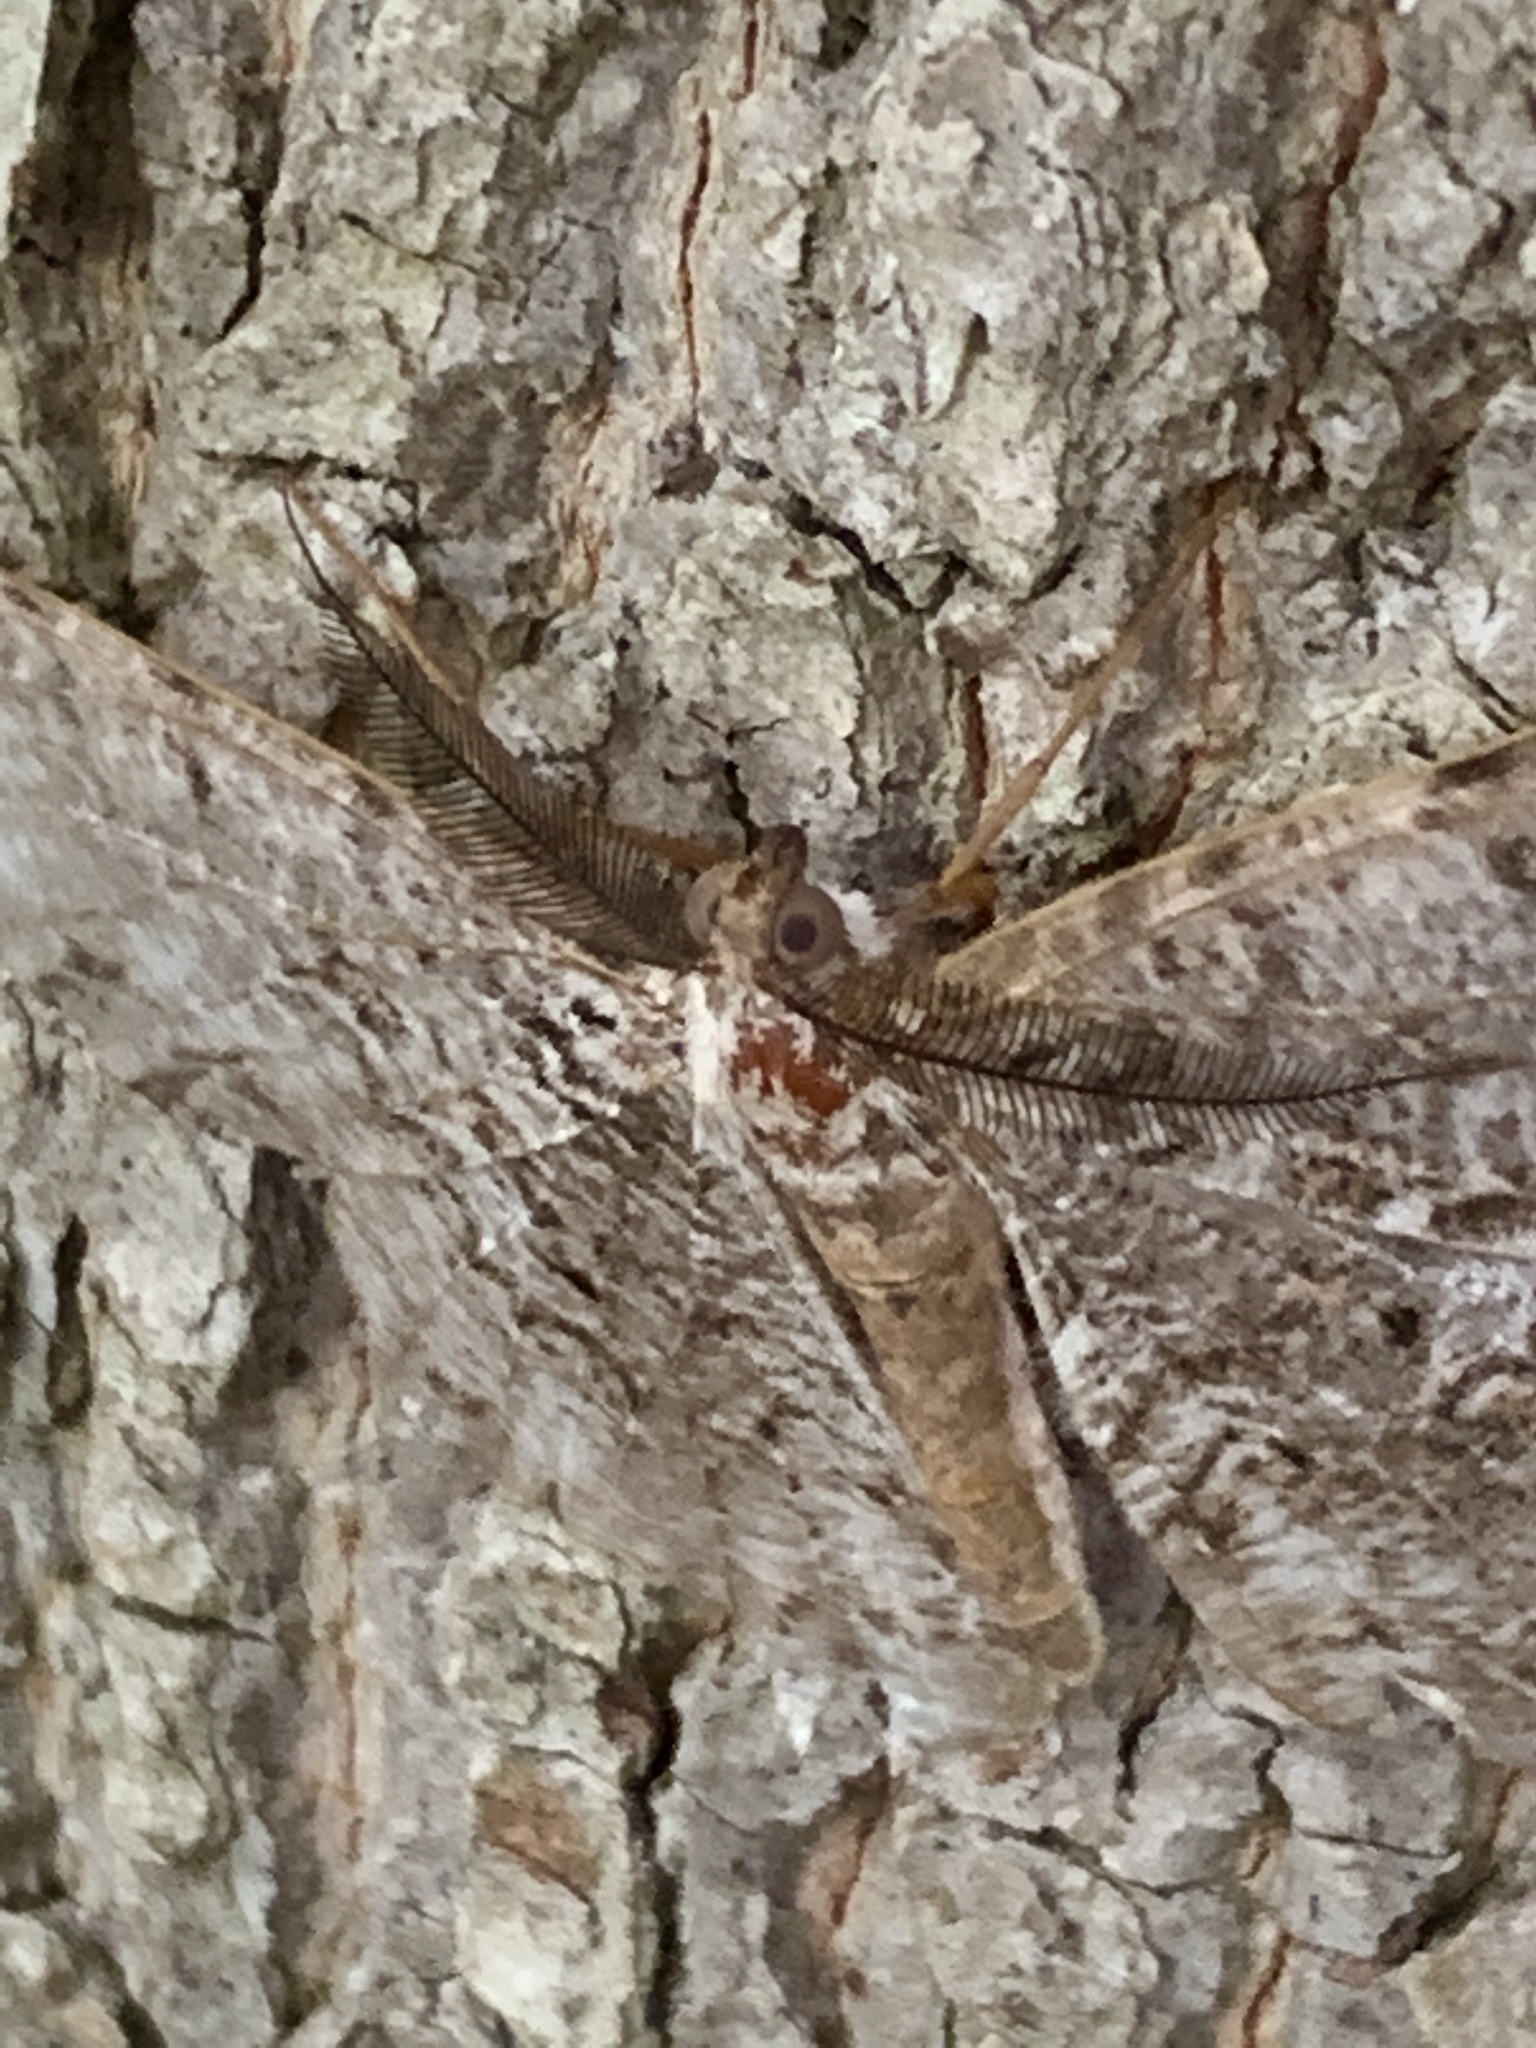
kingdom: Animalia
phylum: Arthropoda
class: Insecta
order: Lepidoptera
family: Geometridae
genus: Epimecis
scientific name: Epimecis hortaria
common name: Tulip-tree beauty
